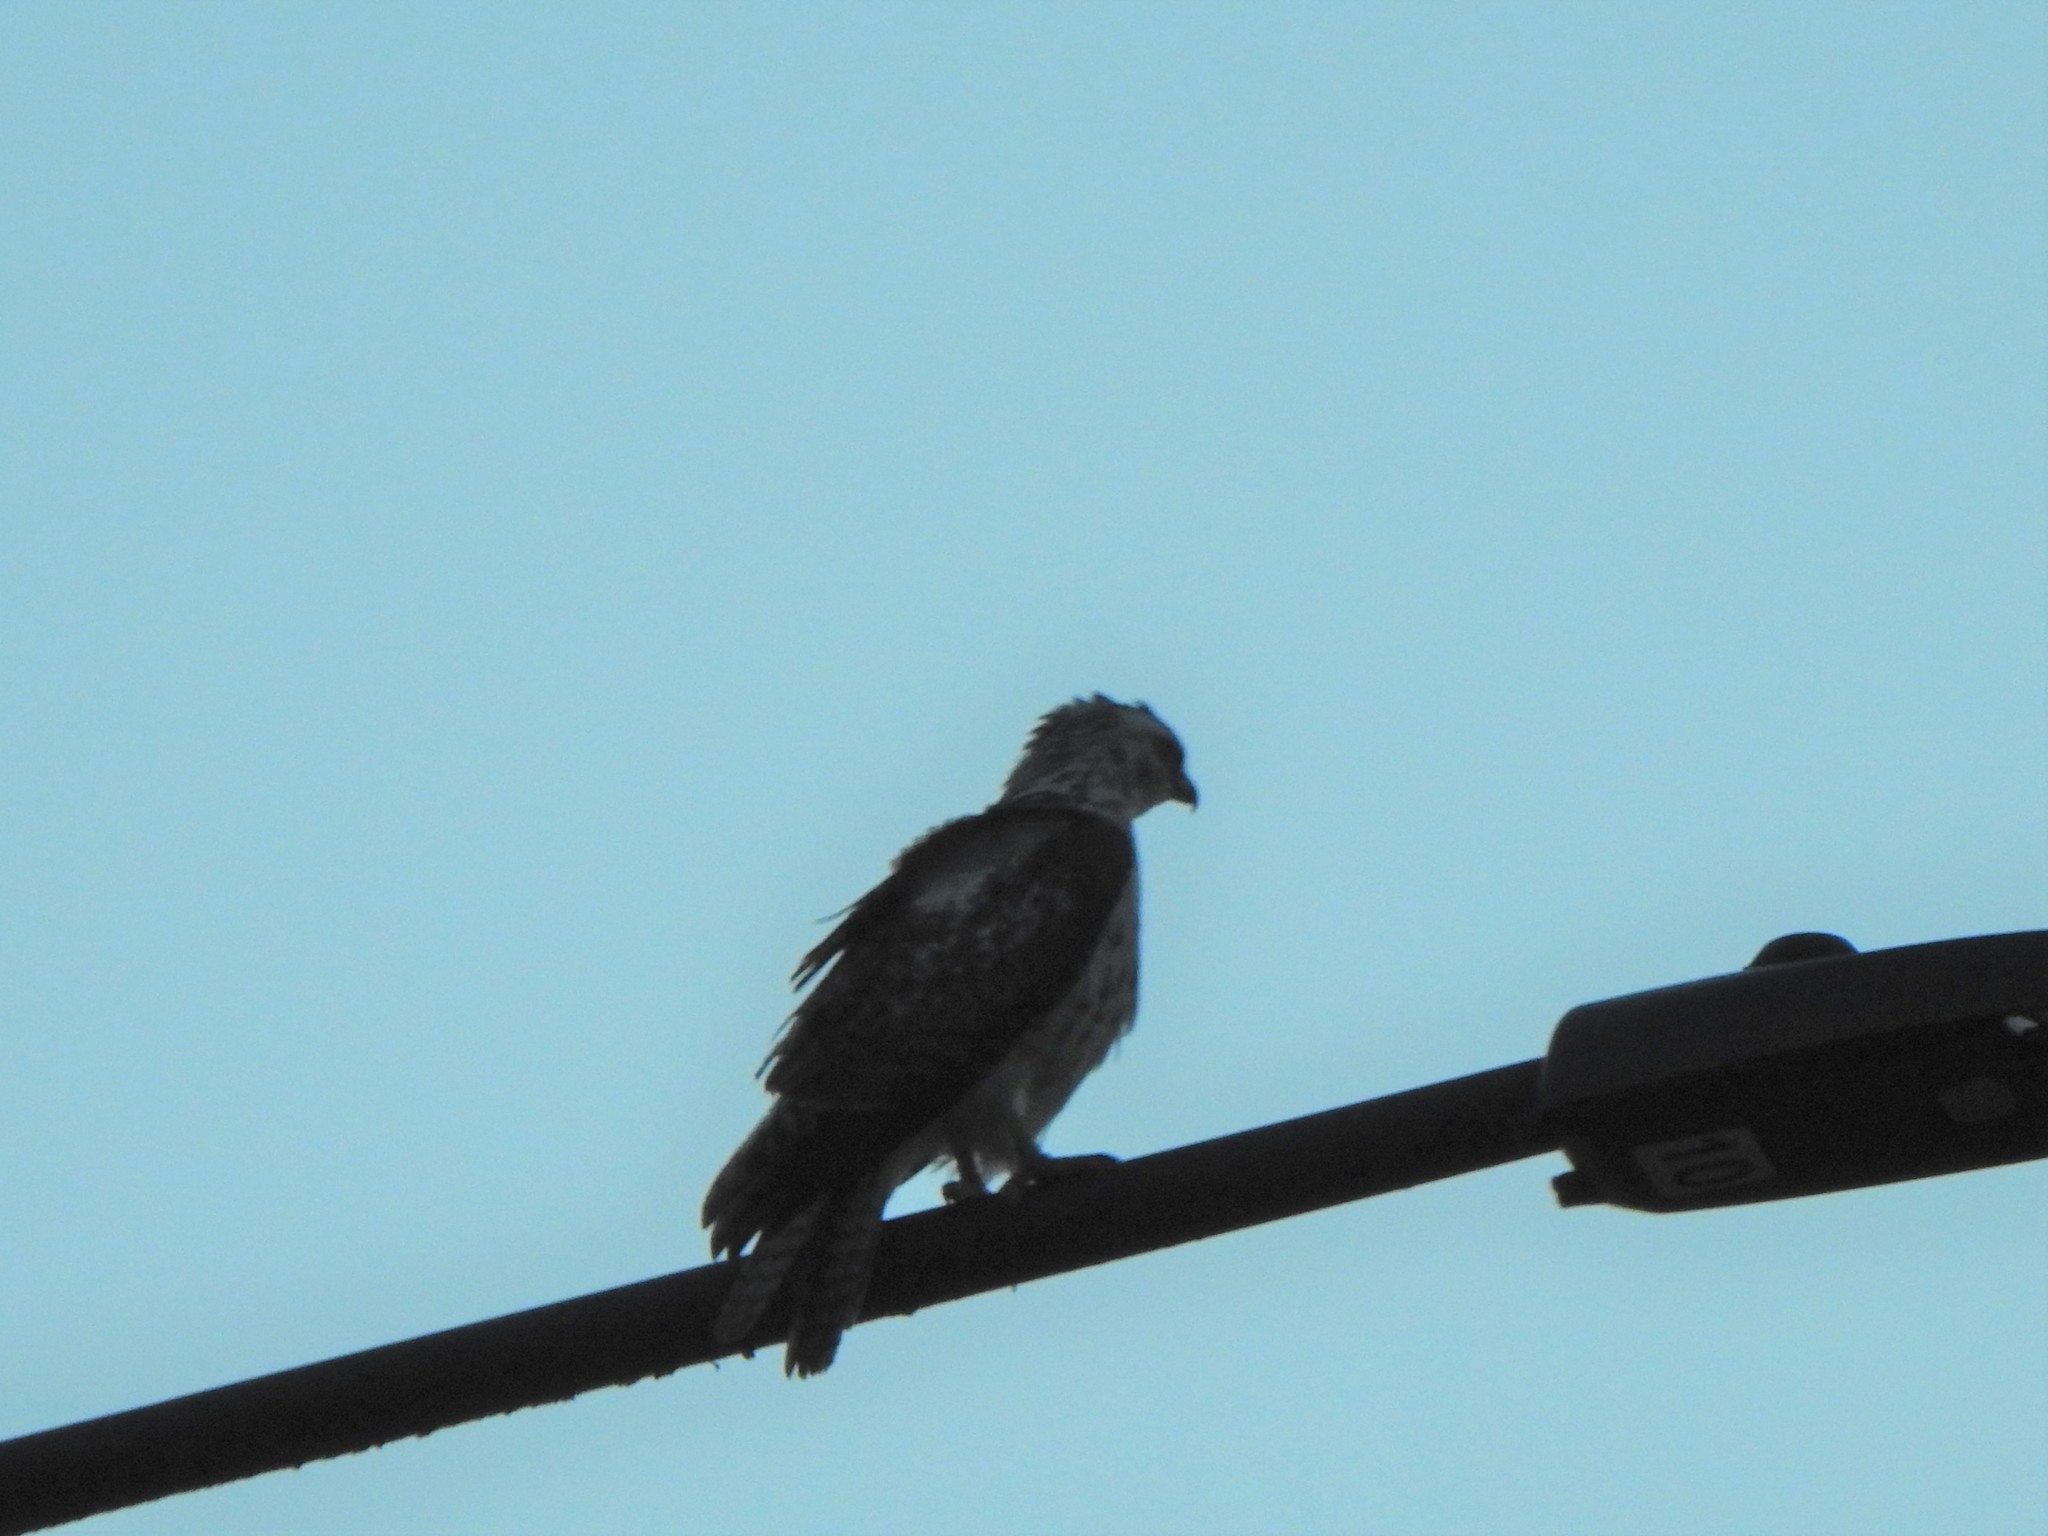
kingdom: Animalia
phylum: Chordata
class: Aves
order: Accipitriformes
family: Pandionidae
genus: Pandion
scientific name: Pandion haliaetus
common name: Osprey
